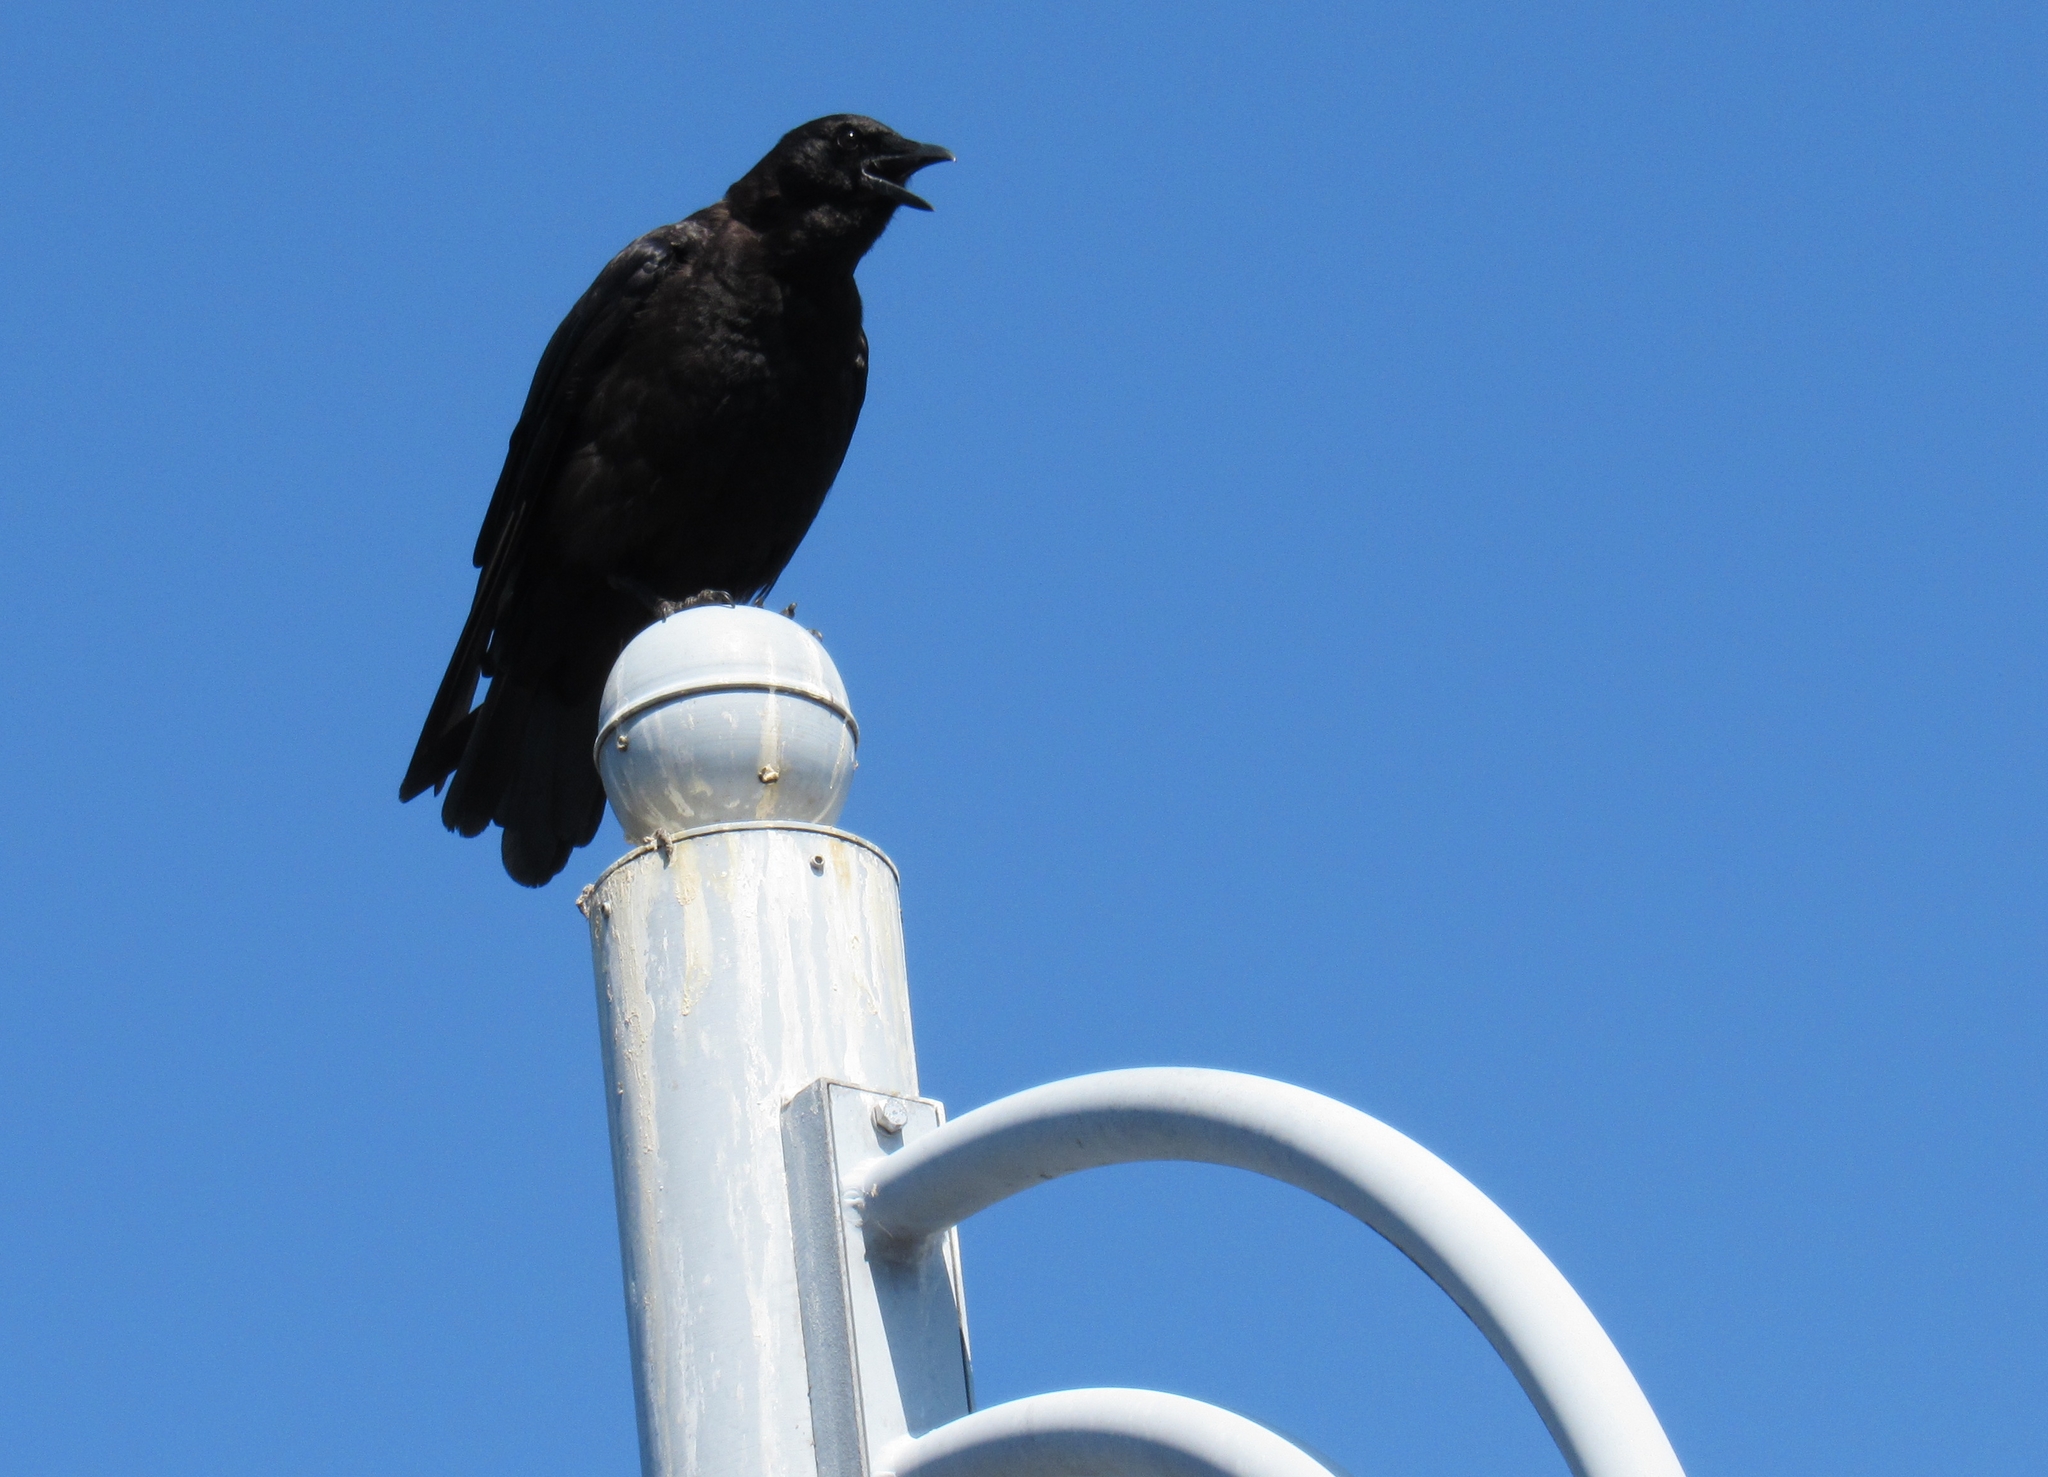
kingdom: Animalia
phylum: Chordata
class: Aves
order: Passeriformes
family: Corvidae
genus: Corvus
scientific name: Corvus brachyrhynchos
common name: American crow
